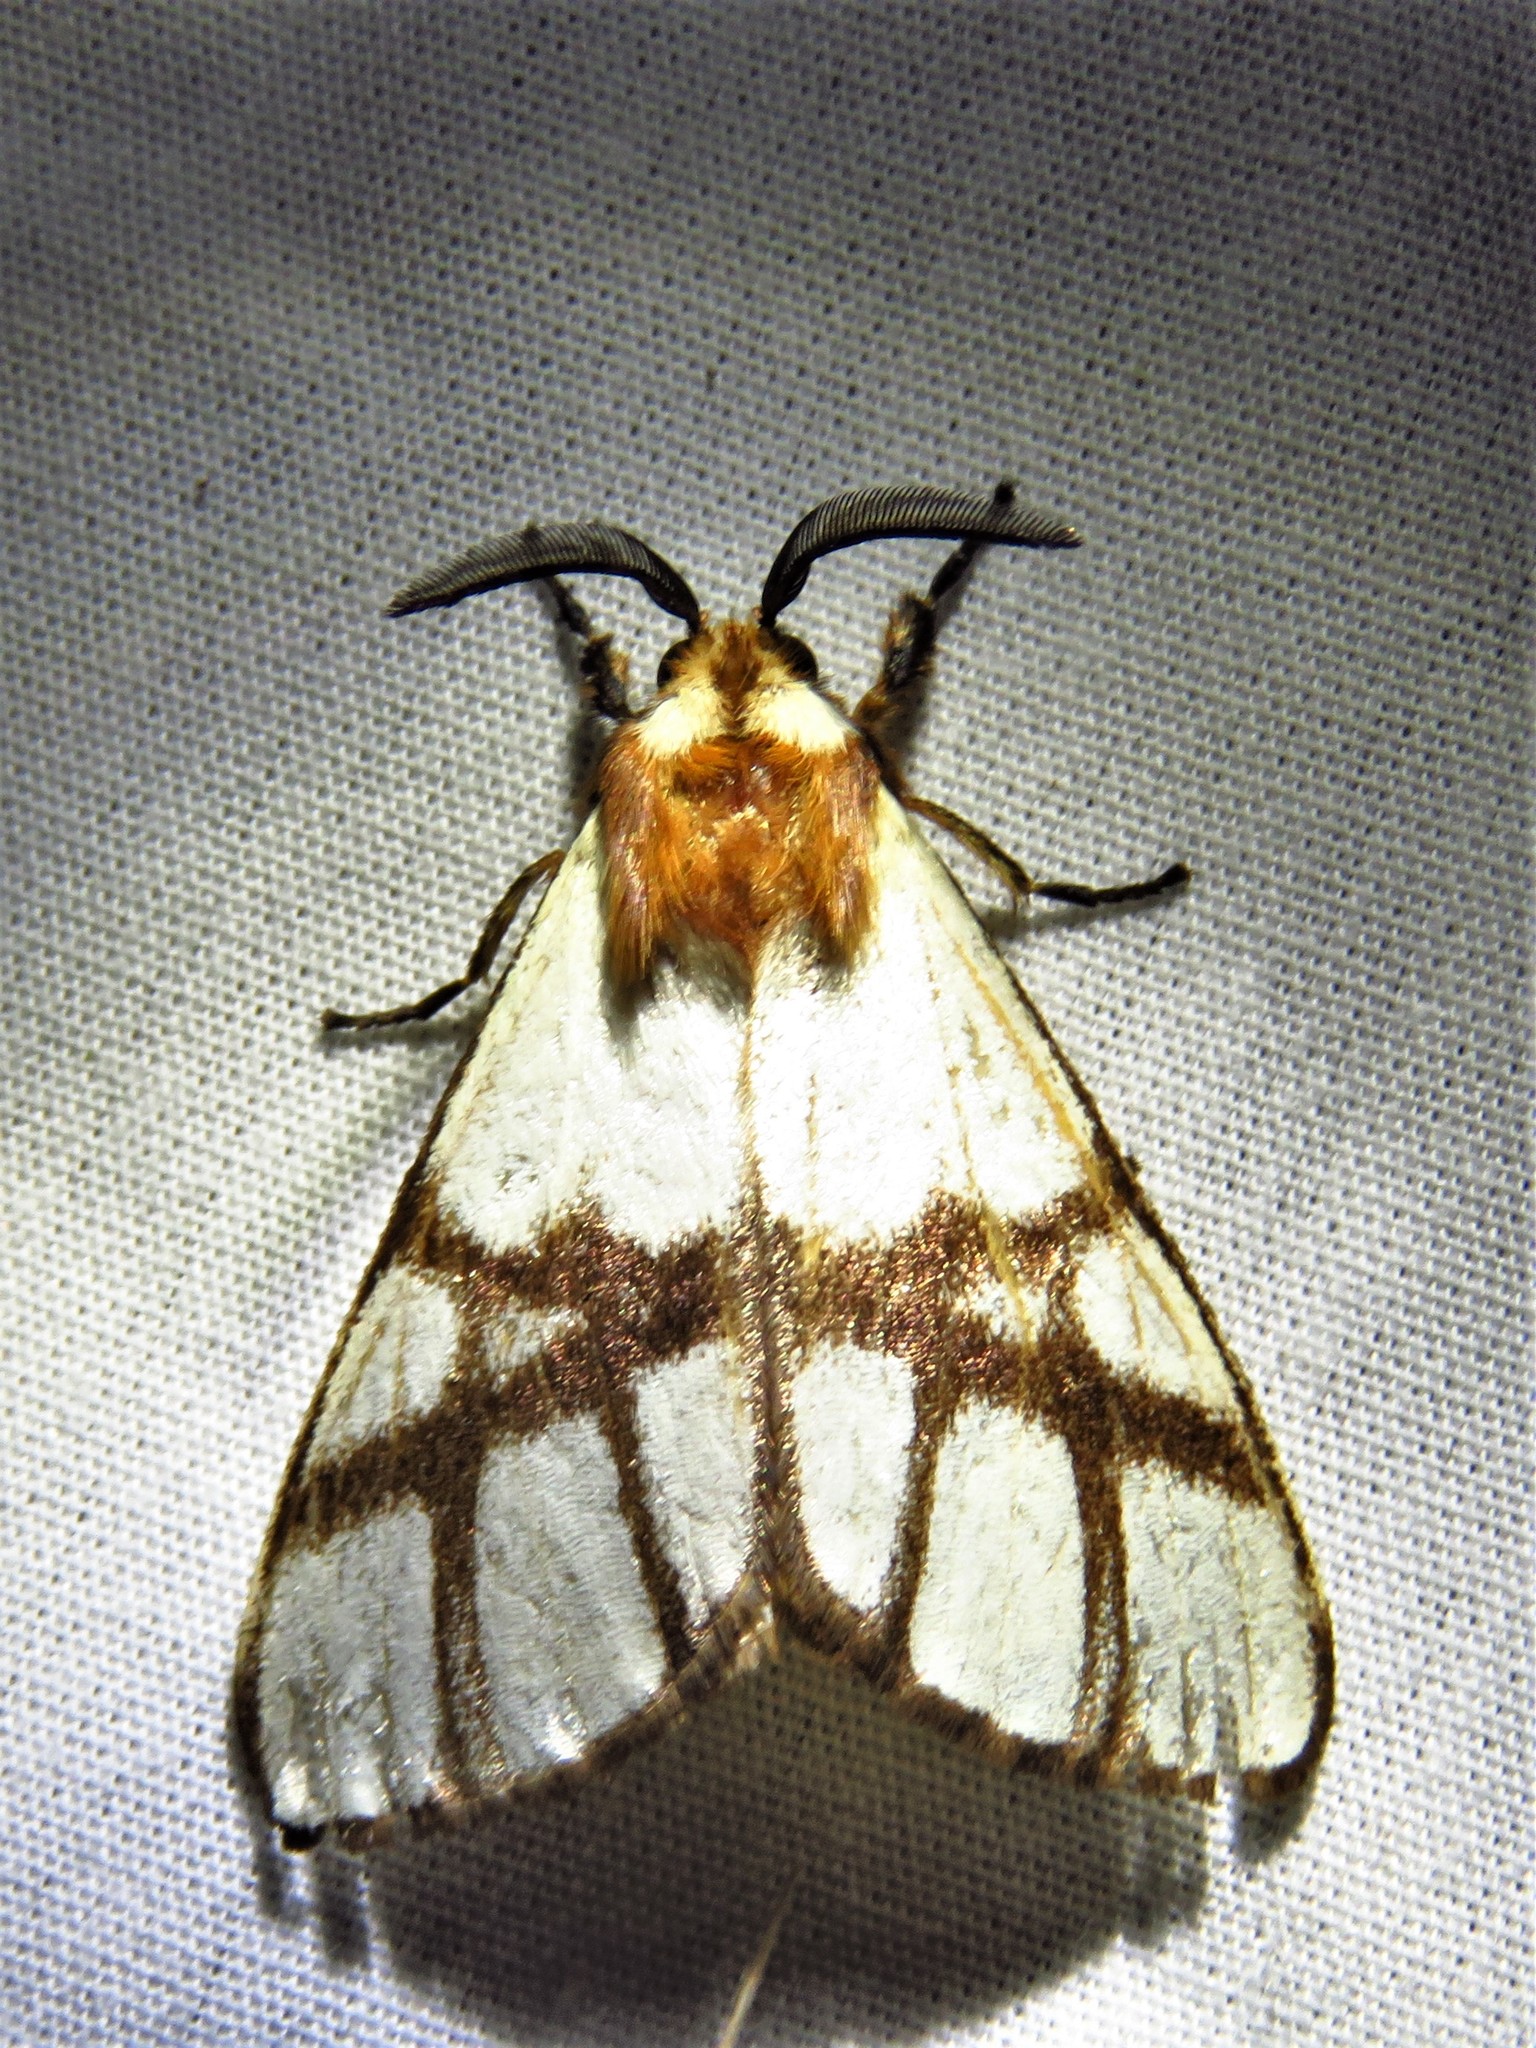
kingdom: Animalia
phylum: Arthropoda
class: Insecta
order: Lepidoptera
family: Notodontidae
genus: Anaphe
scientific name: Anaphe panda
